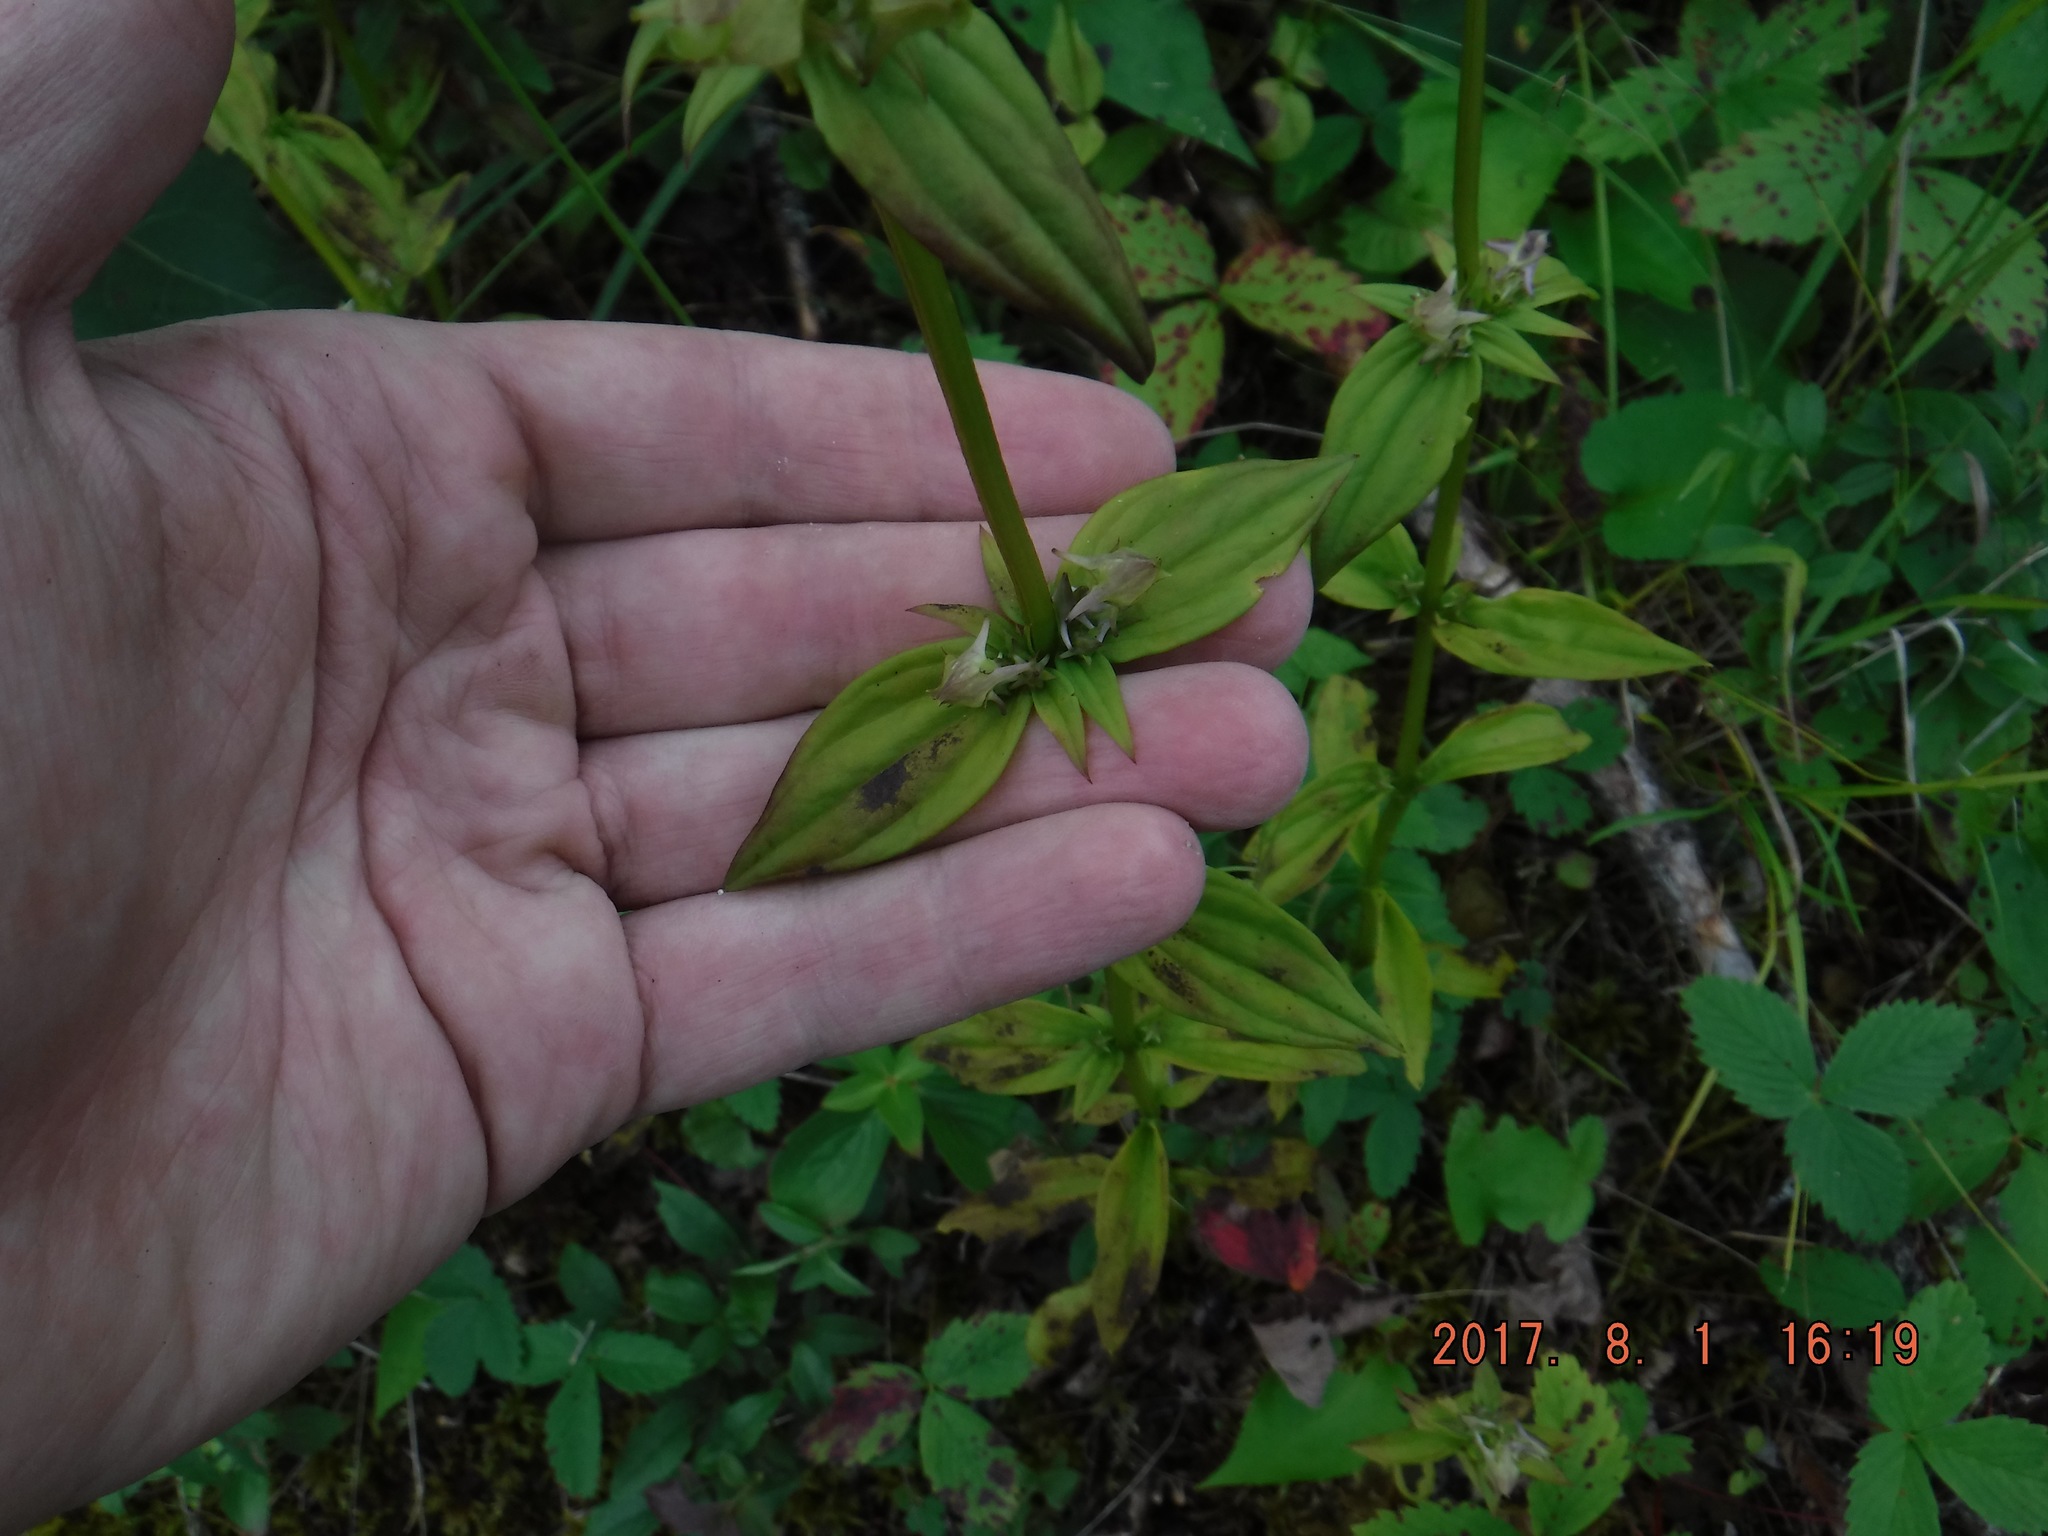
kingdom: Plantae
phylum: Tracheophyta
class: Magnoliopsida
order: Gentianales
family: Gentianaceae
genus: Halenia
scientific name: Halenia deflexa
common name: American spurred gentian
